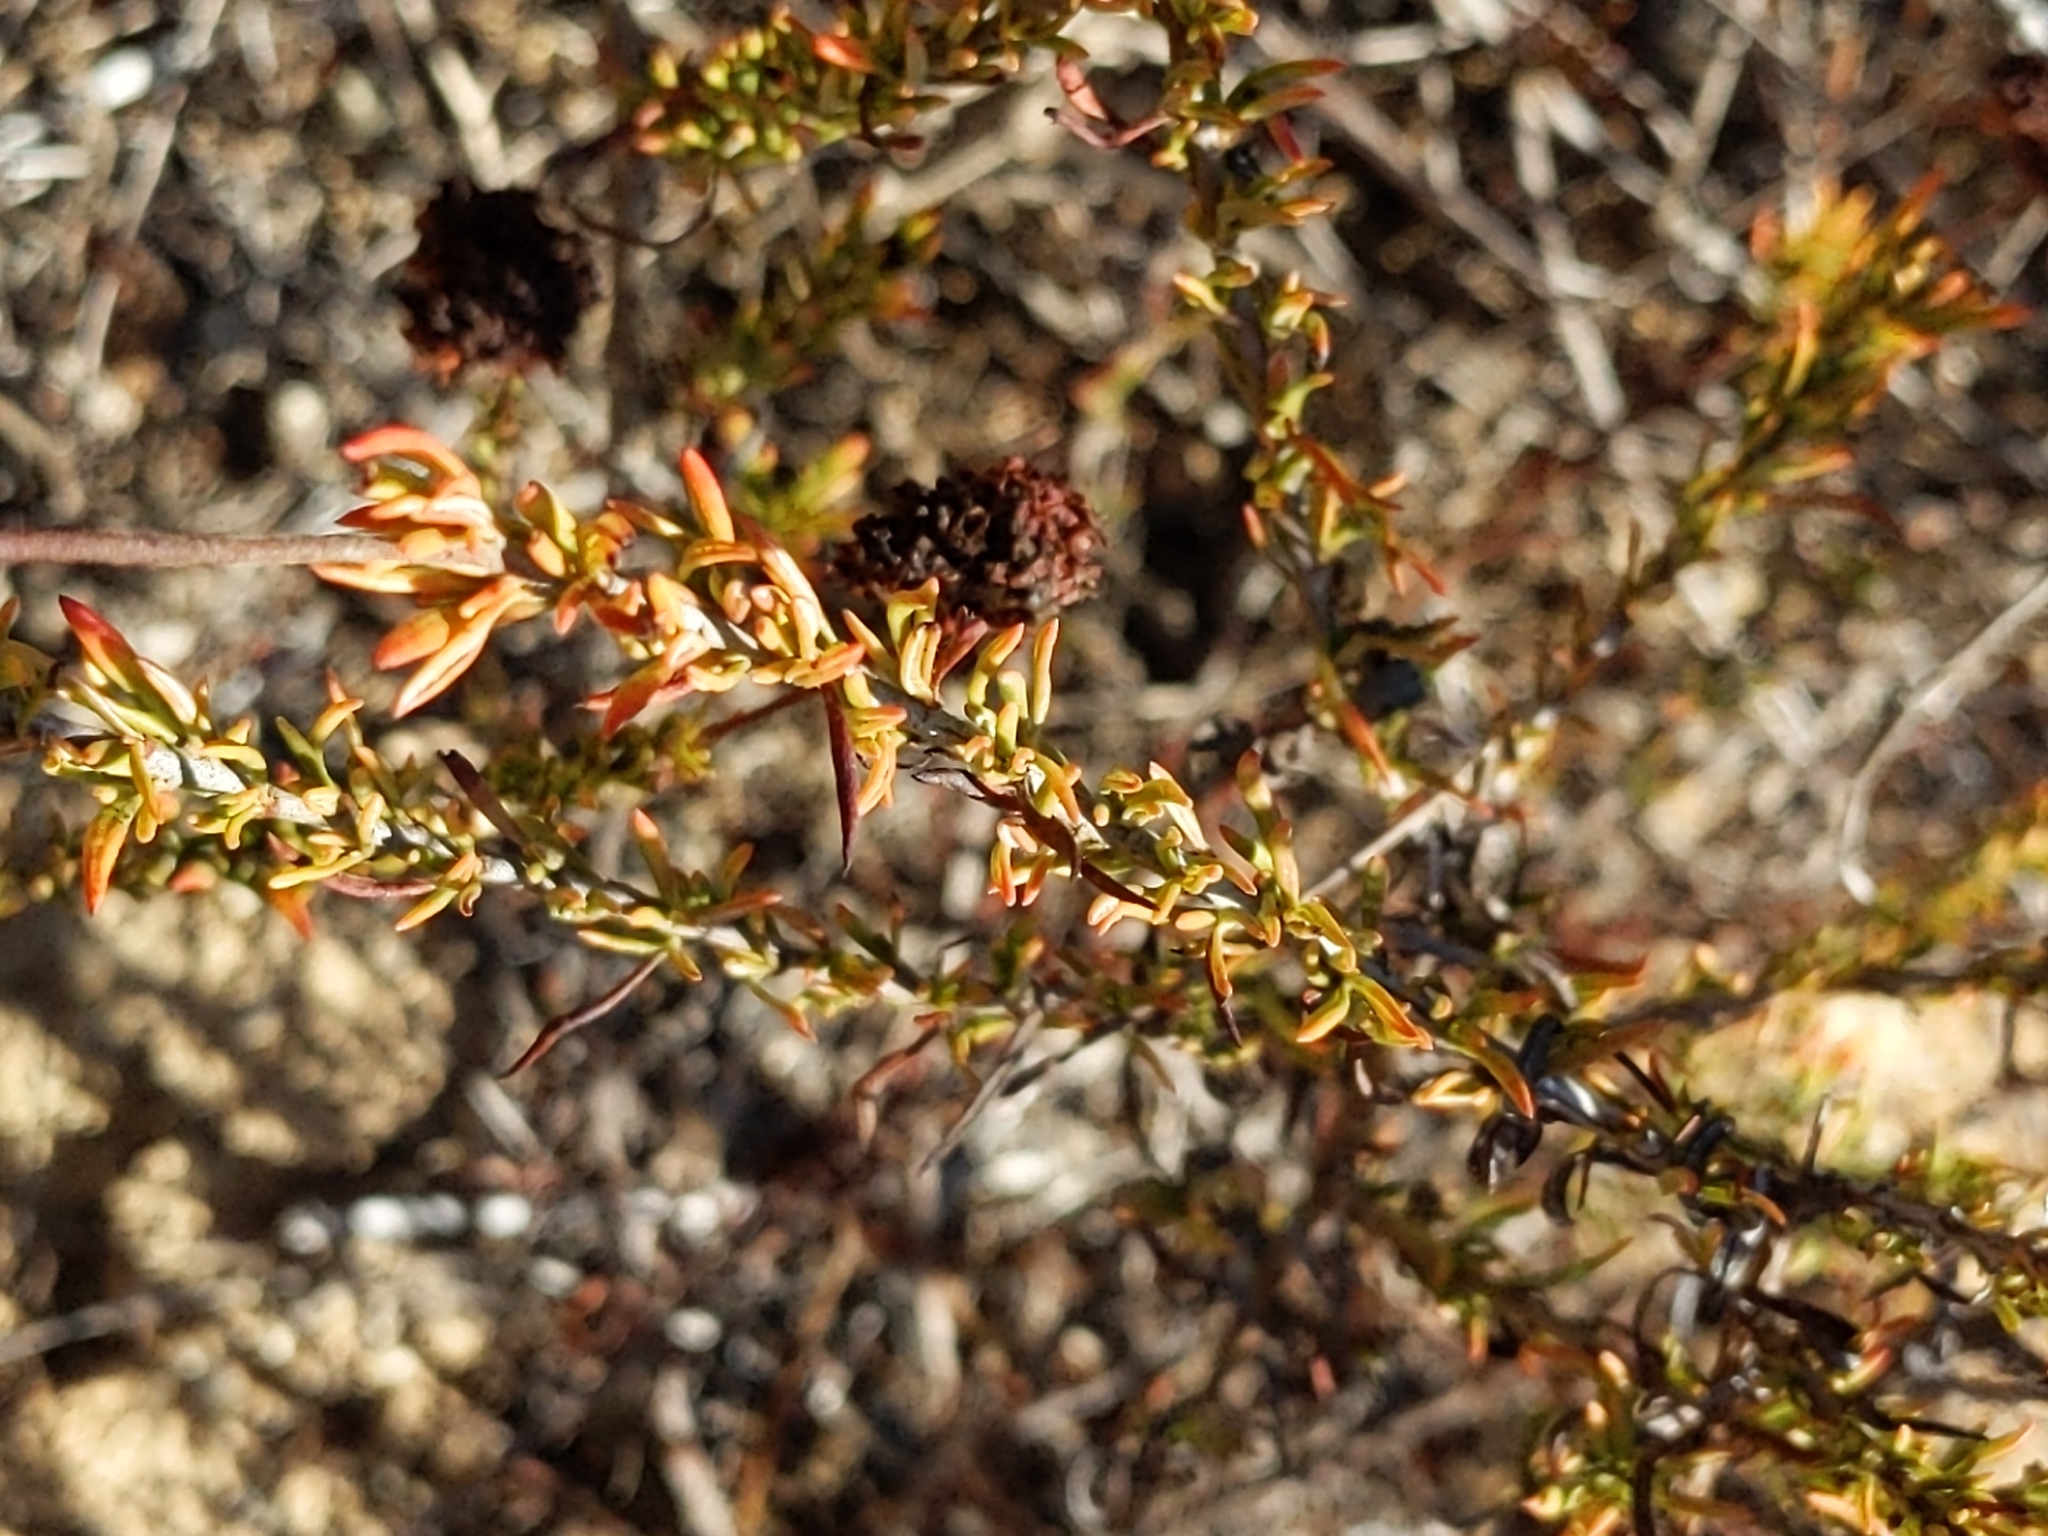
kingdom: Plantae
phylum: Tracheophyta
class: Magnoliopsida
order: Caryophyllales
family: Polygonaceae
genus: Eriogonum
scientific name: Eriogonum fasciculatum
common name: California wild buckwheat
